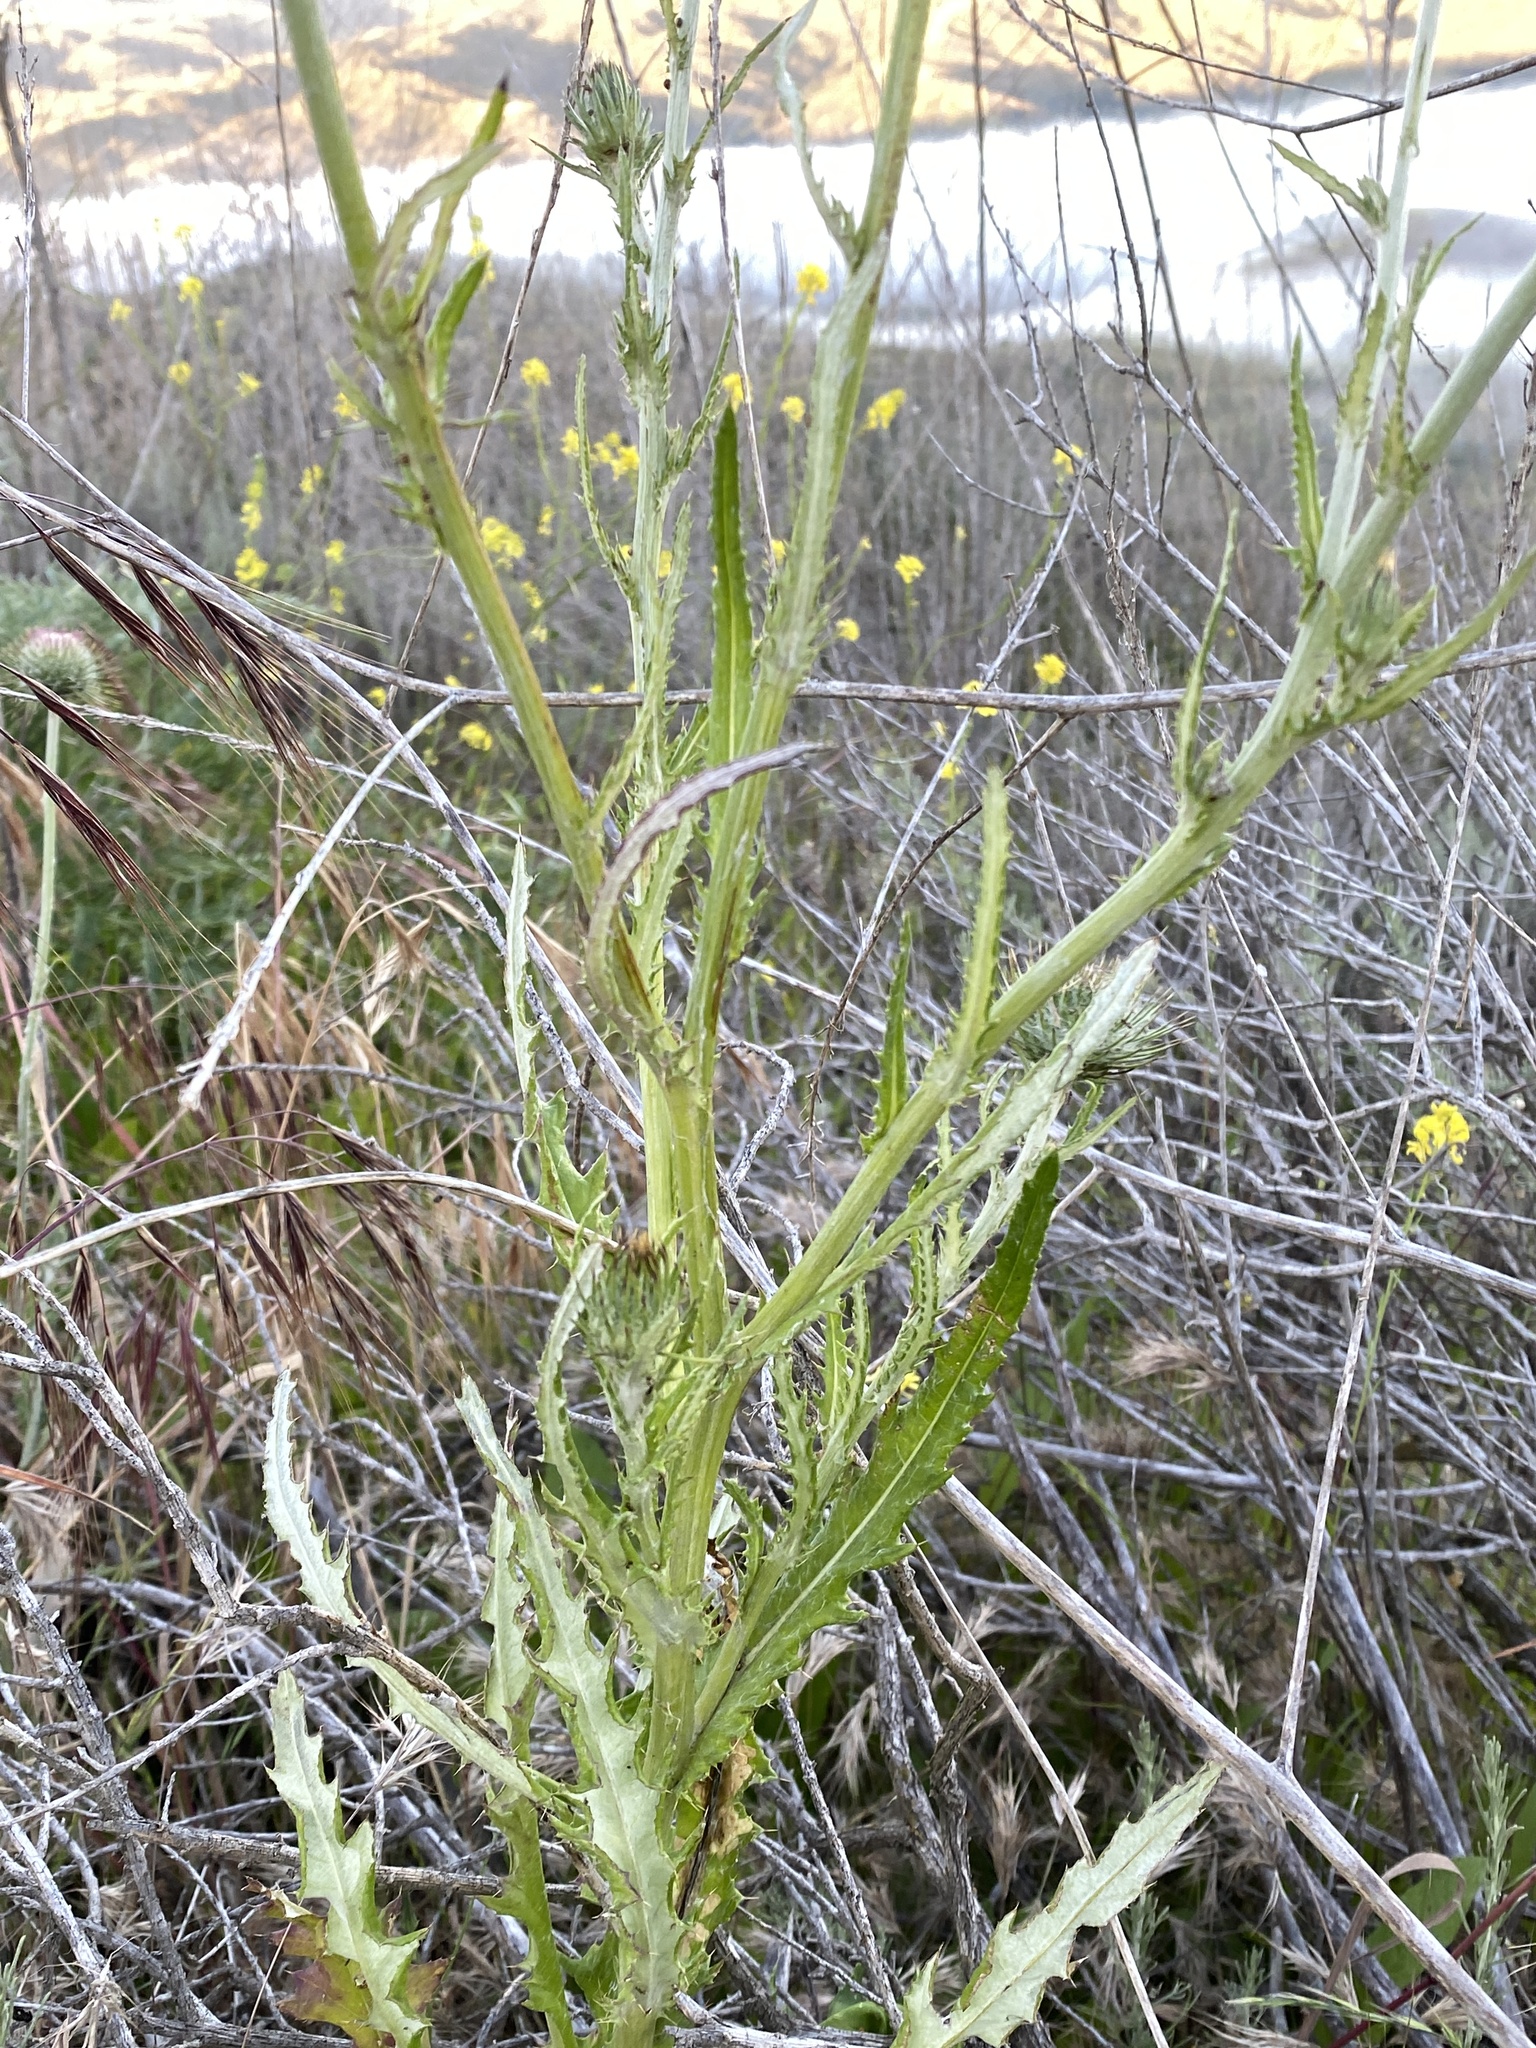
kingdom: Plantae
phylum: Tracheophyta
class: Magnoliopsida
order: Asterales
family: Asteraceae
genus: Cirsium
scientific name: Cirsium occidentale
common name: Western thistle
